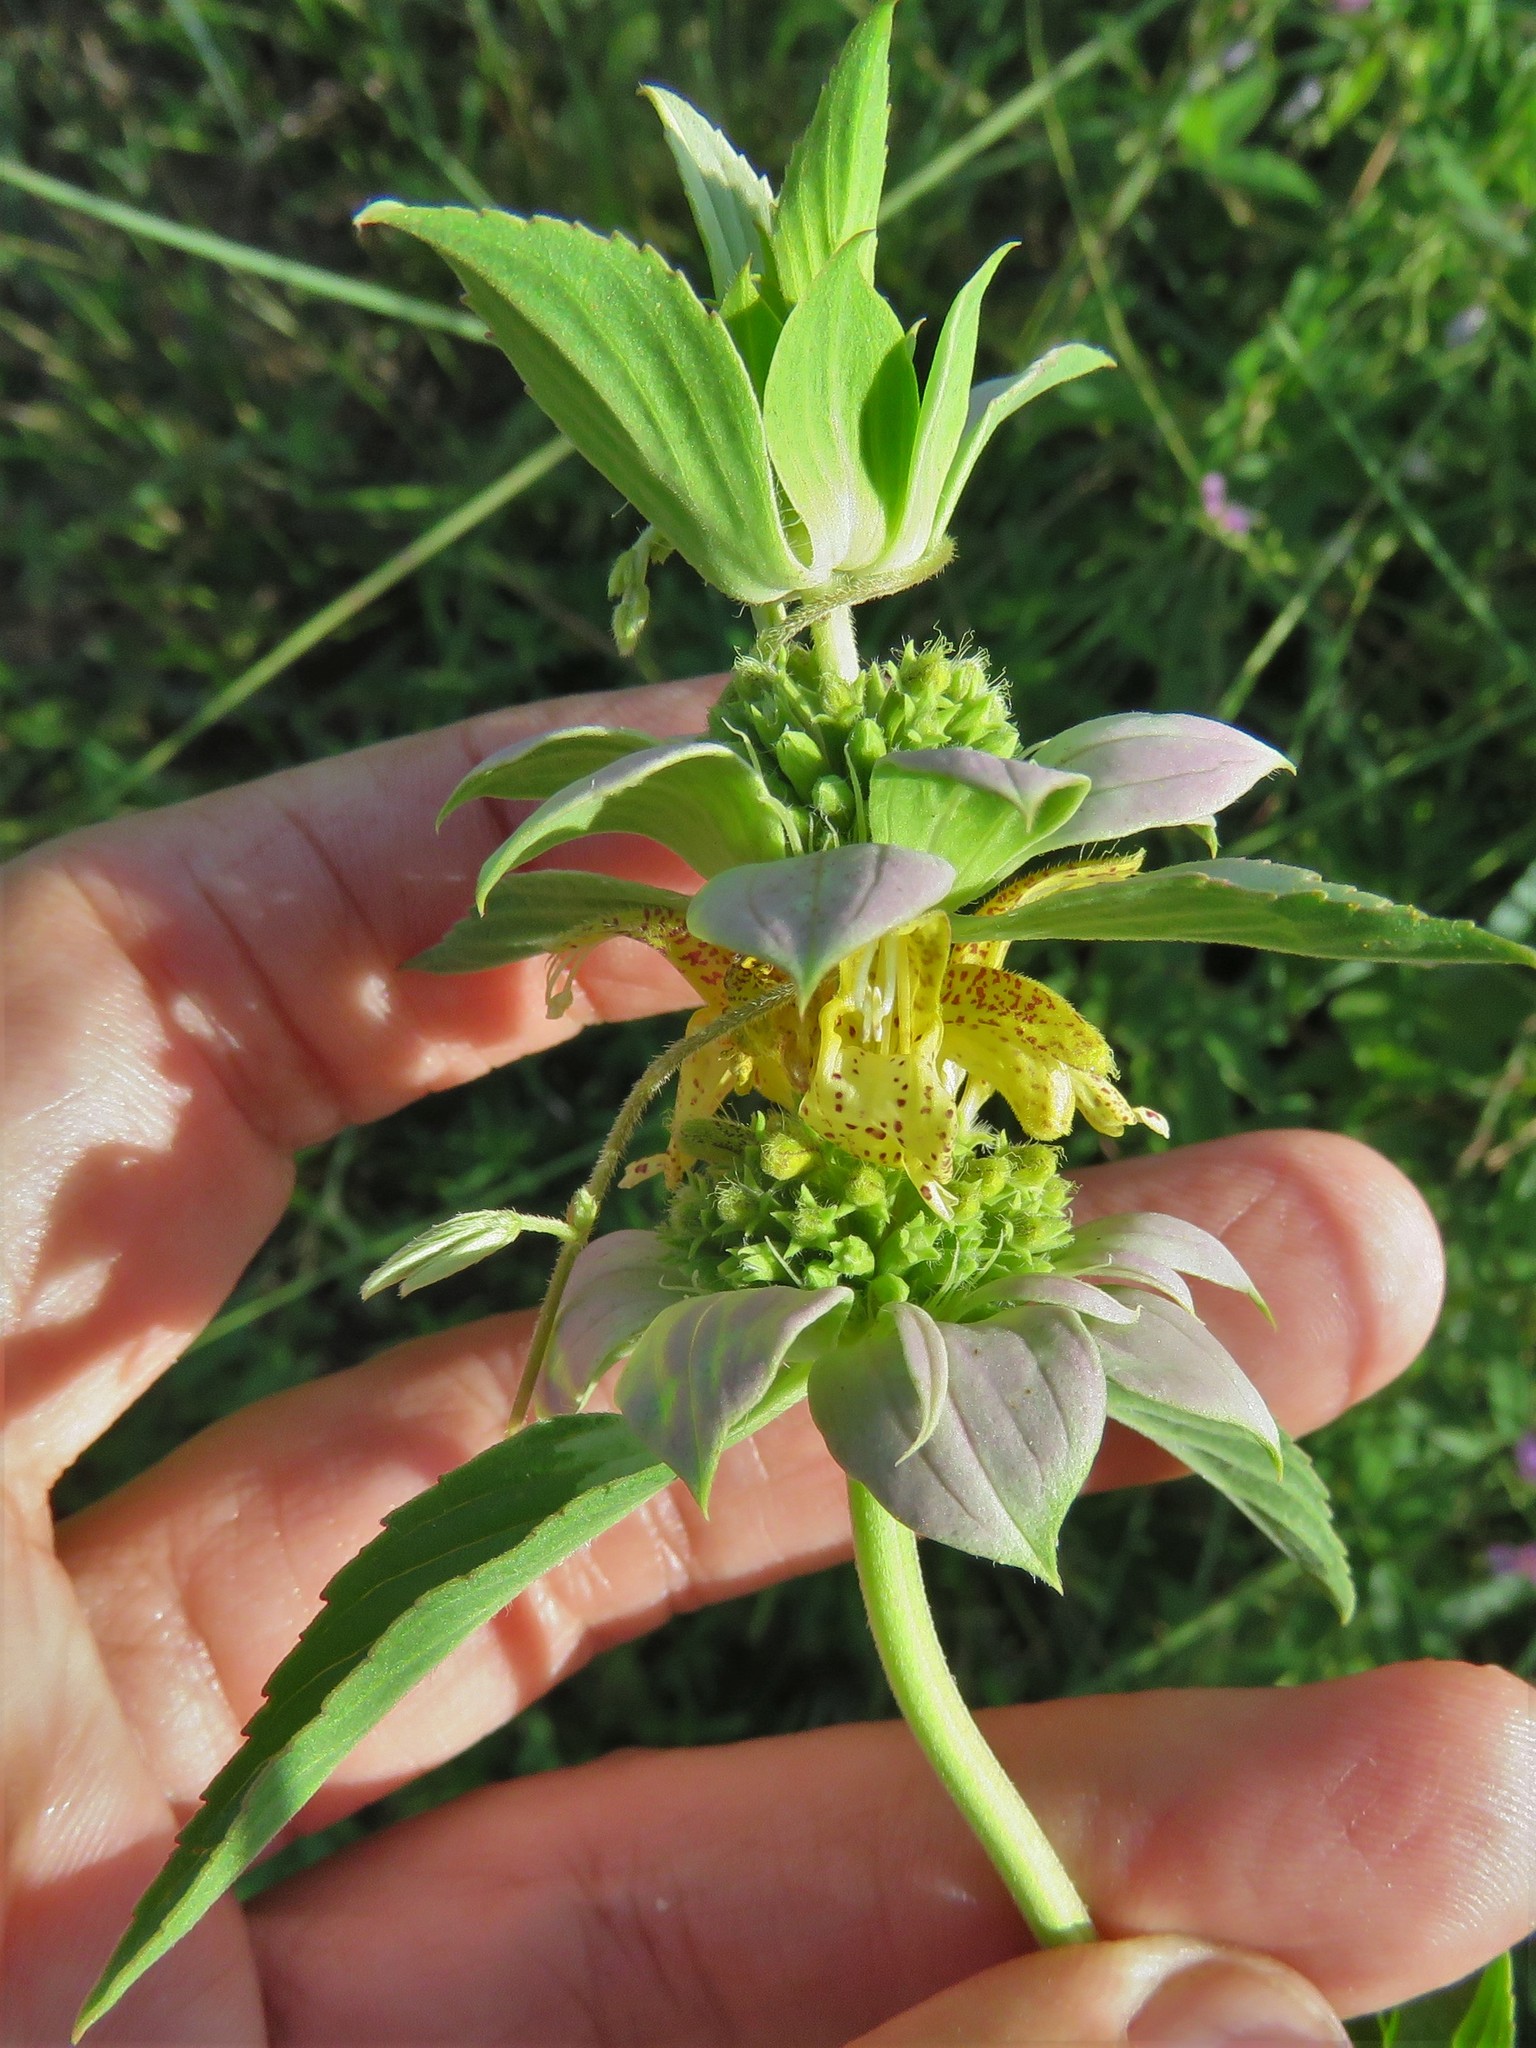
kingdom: Plantae
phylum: Tracheophyta
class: Magnoliopsida
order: Lamiales
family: Lamiaceae
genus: Monarda
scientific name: Monarda punctata
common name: Dotted monarda
